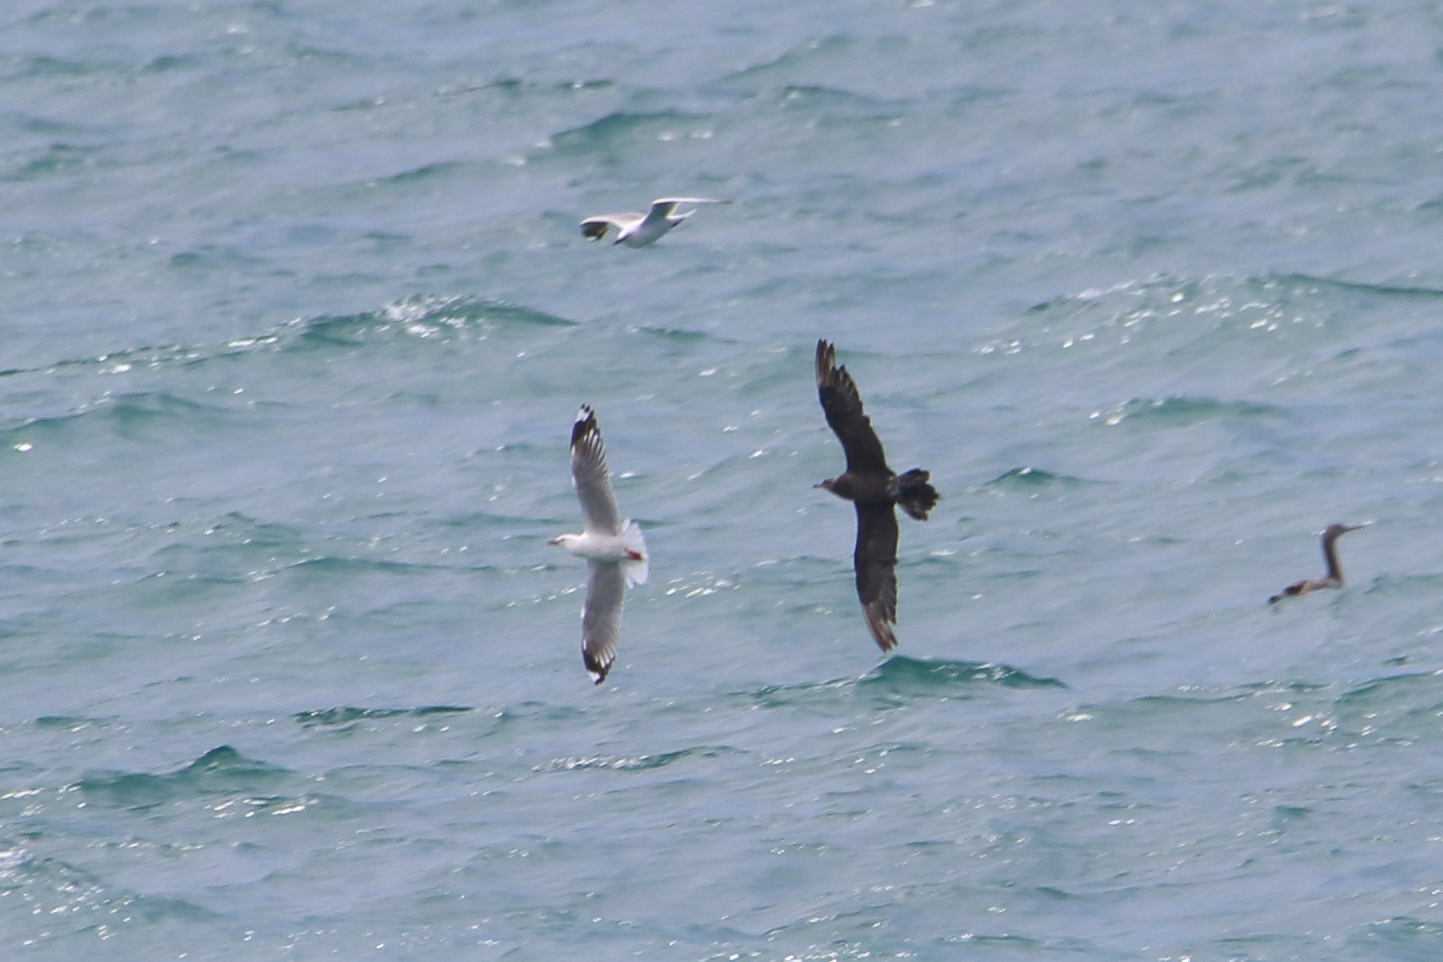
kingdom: Animalia
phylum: Chordata
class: Aves
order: Charadriiformes
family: Stercorariidae
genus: Stercorarius
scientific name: Stercorarius parasiticus
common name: Parasitic jaeger
